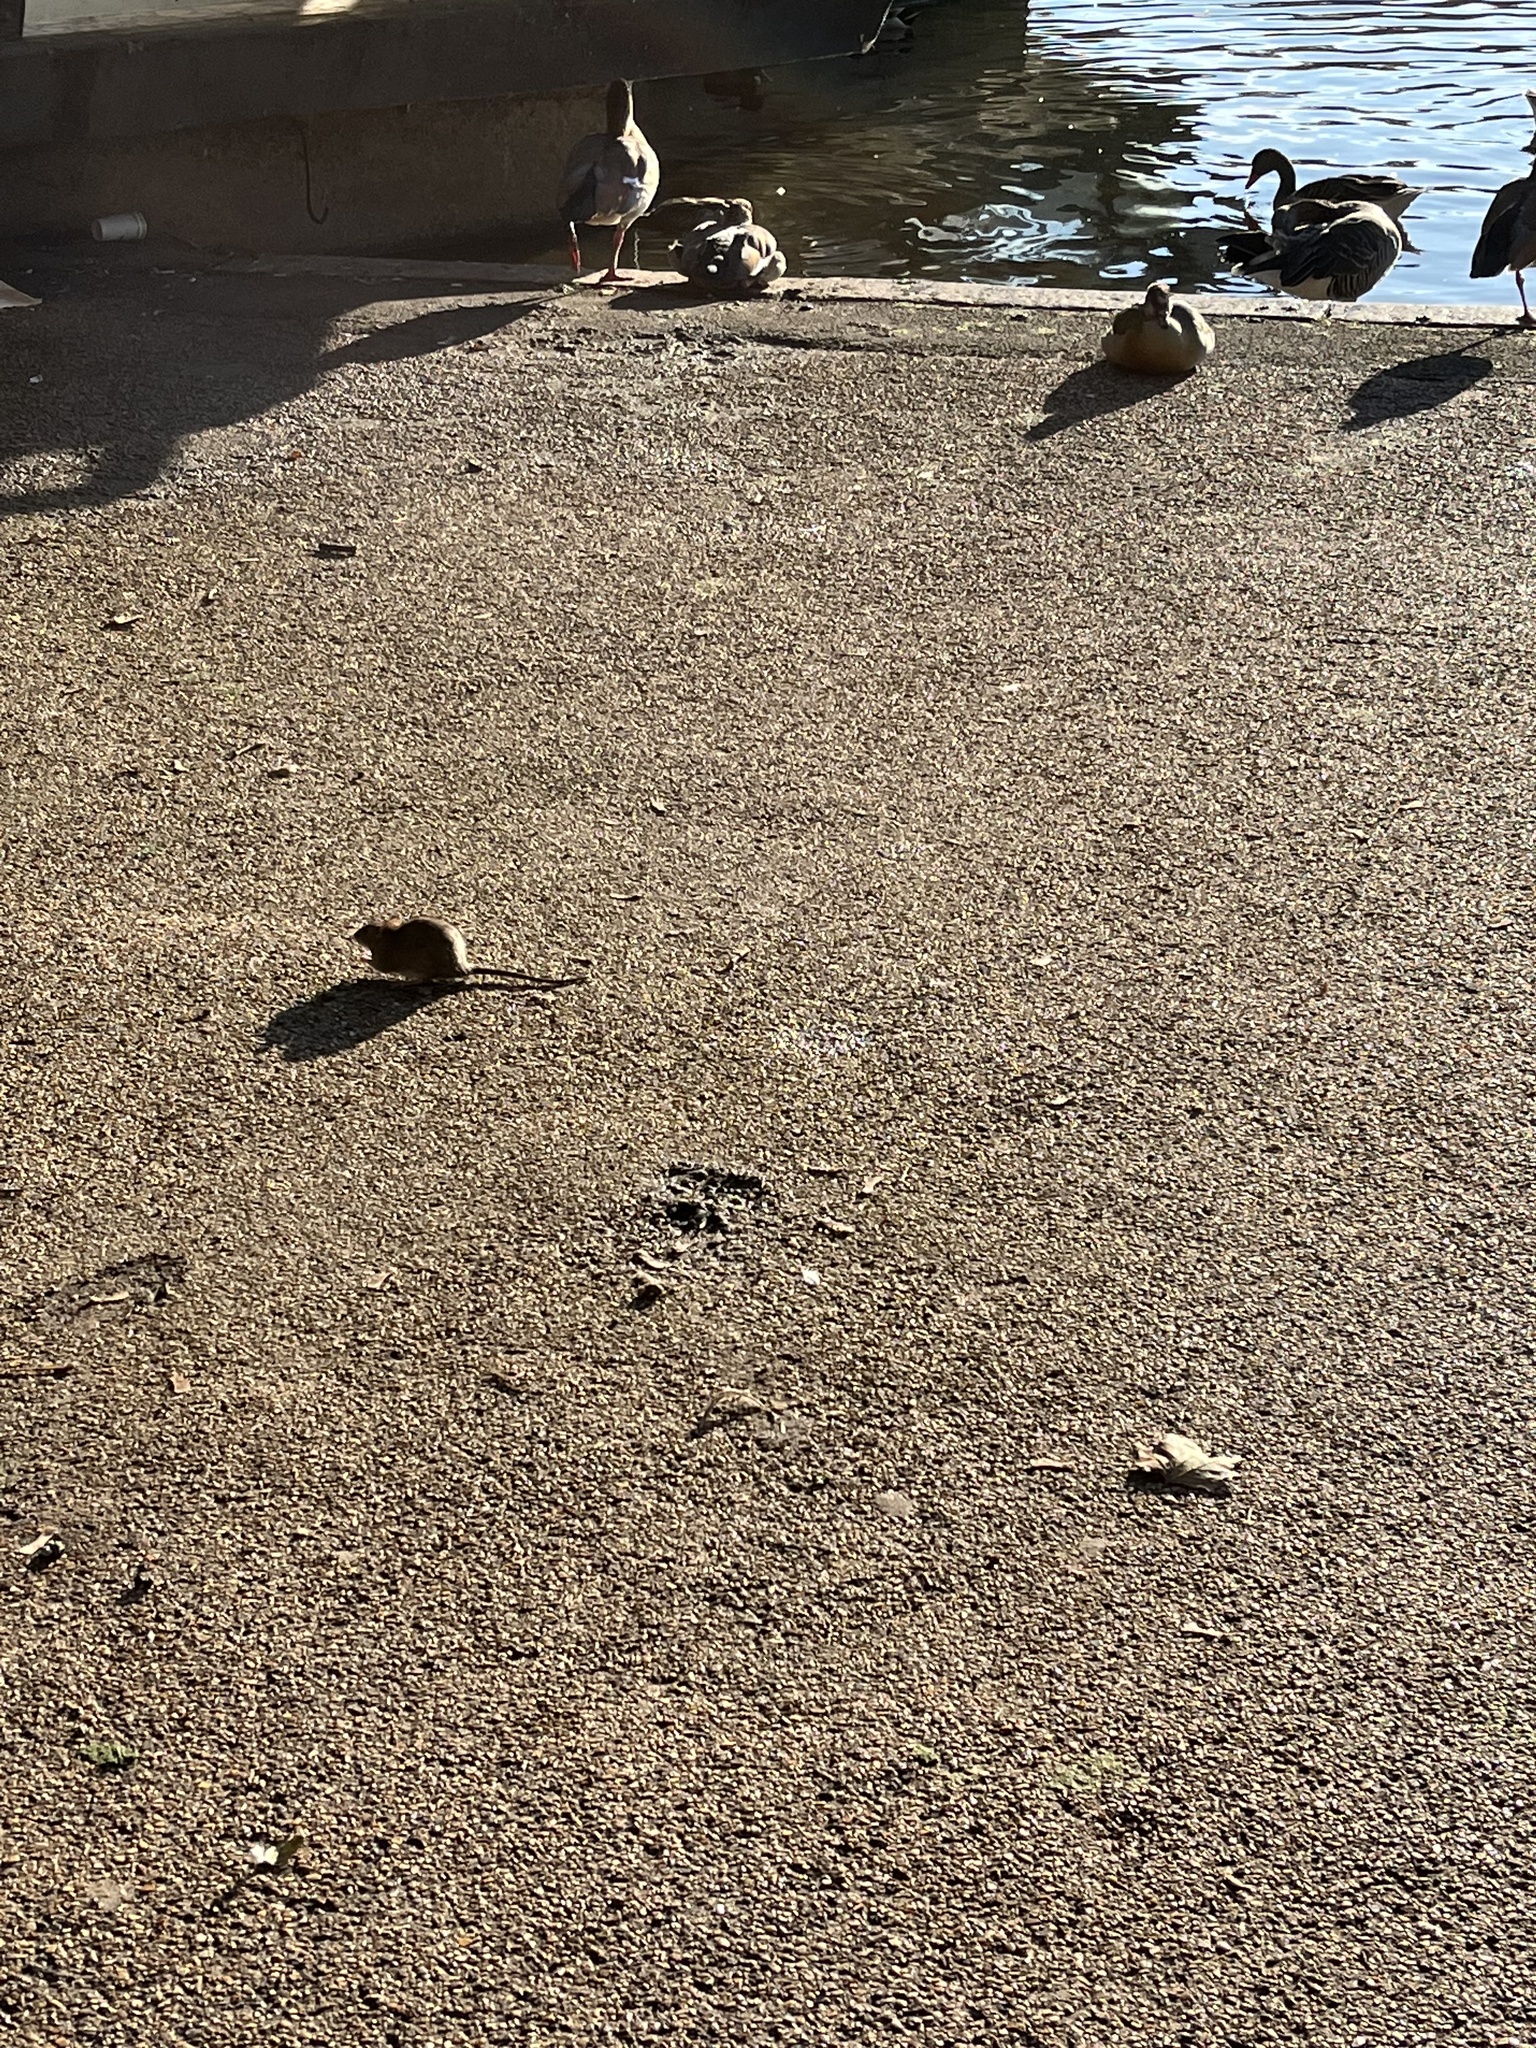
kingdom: Animalia
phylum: Chordata
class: Mammalia
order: Rodentia
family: Muridae
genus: Rattus
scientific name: Rattus norvegicus
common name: Brown rat
